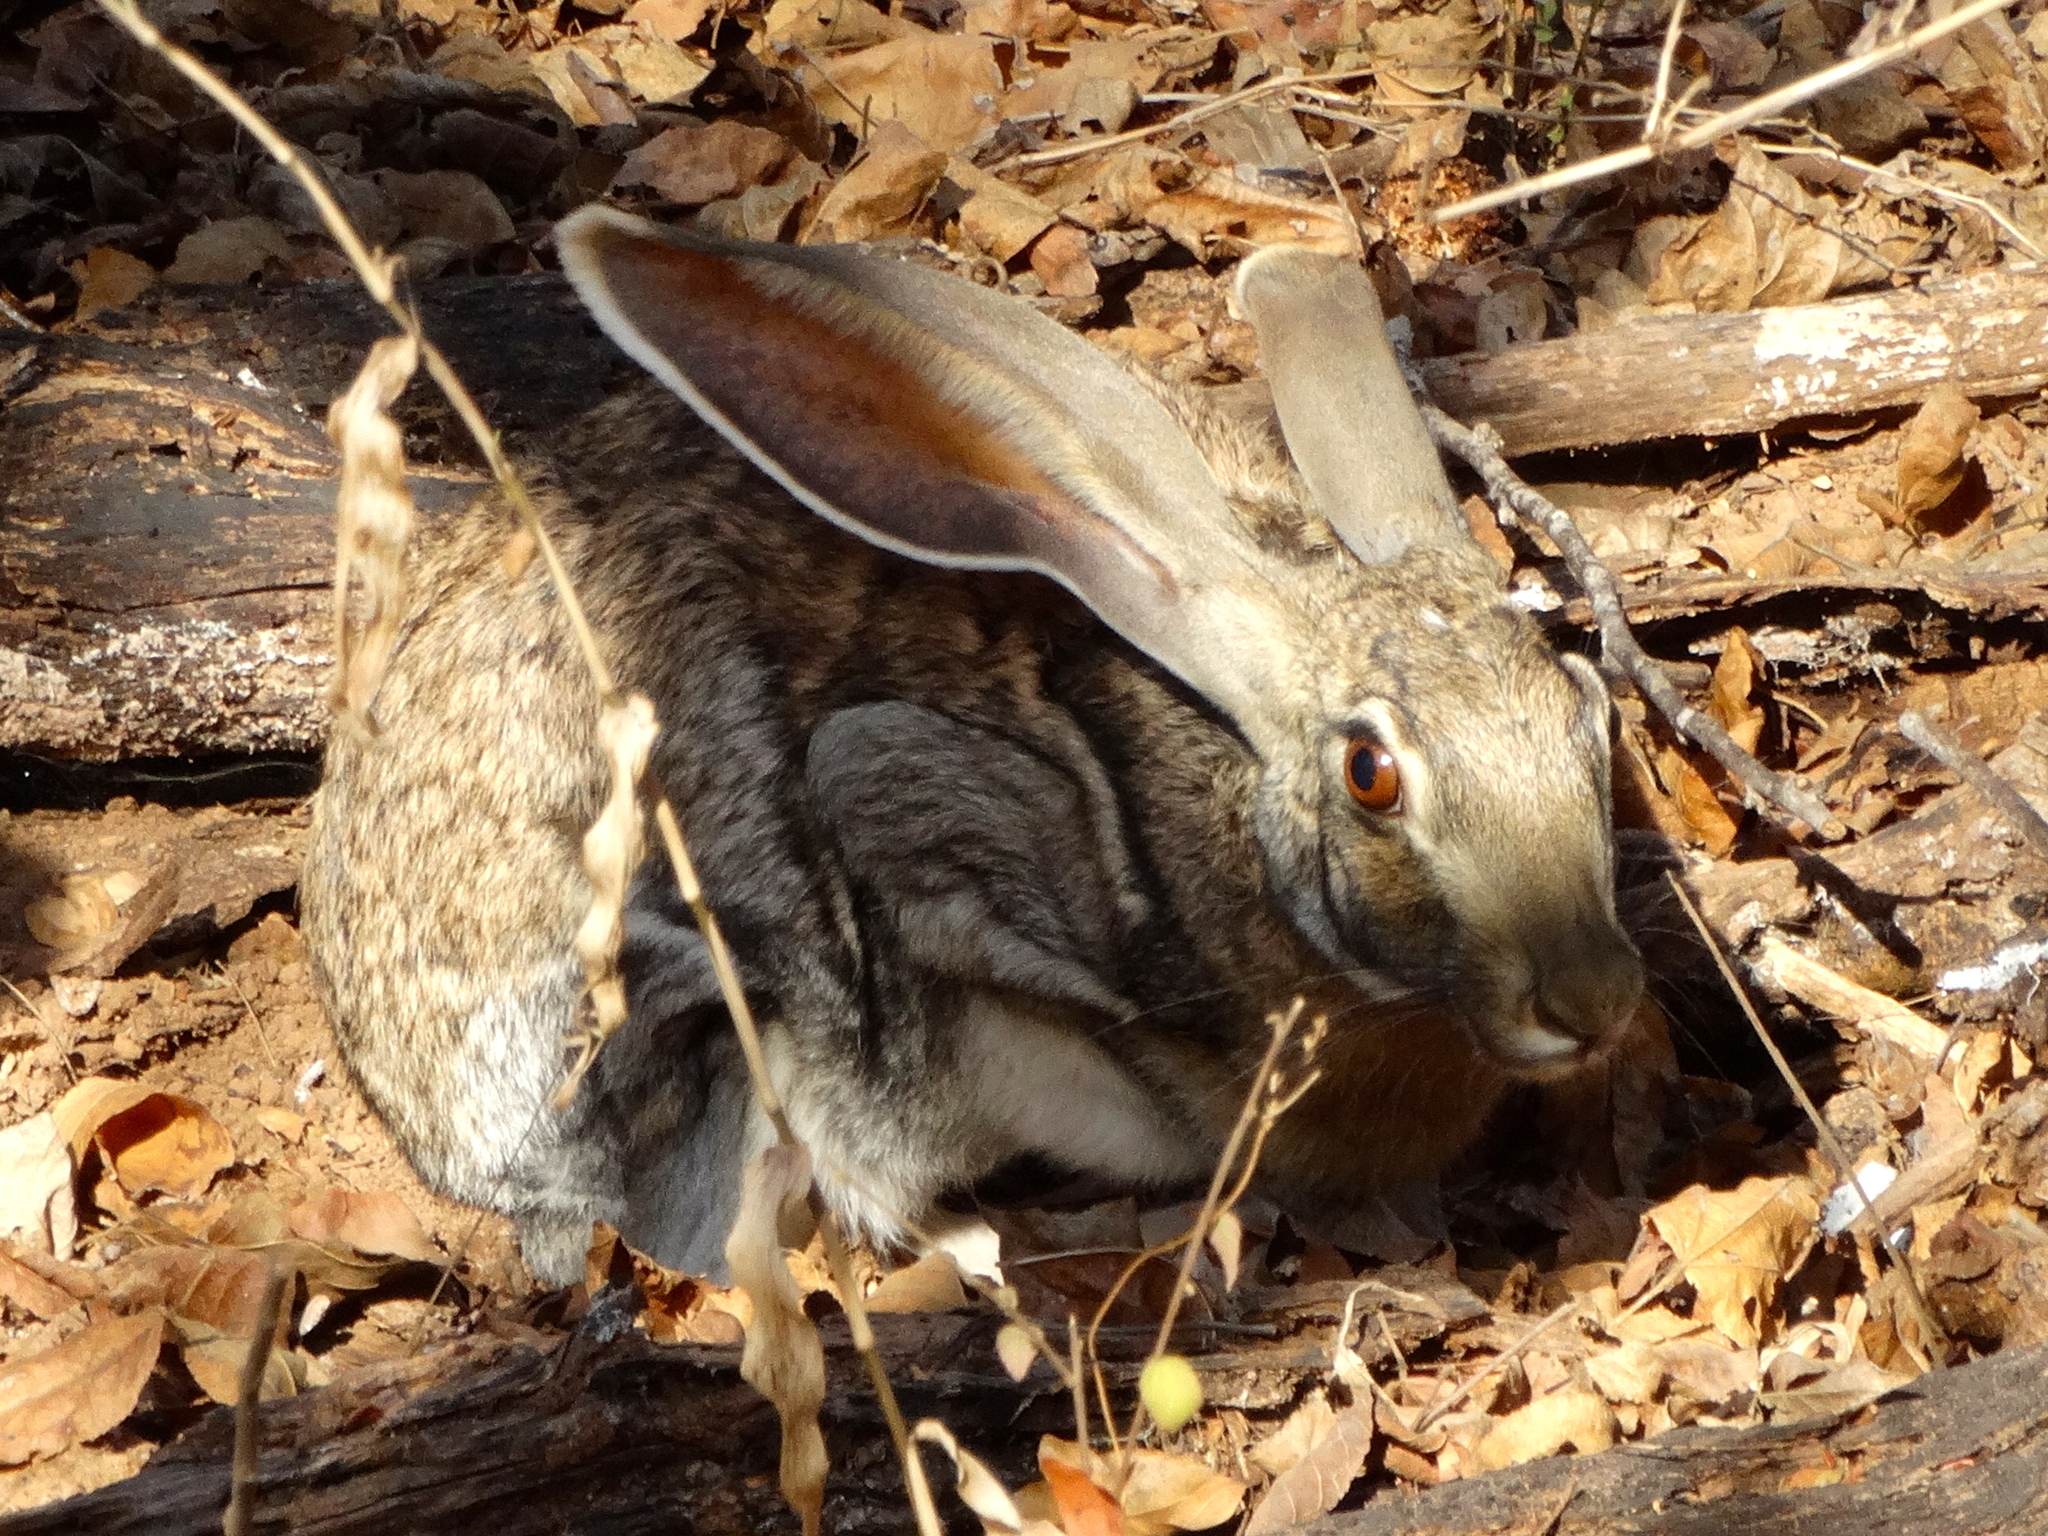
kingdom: Animalia
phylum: Chordata
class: Mammalia
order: Lagomorpha
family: Leporidae
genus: Lepus
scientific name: Lepus alleni
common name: Antelope jackrabbit
